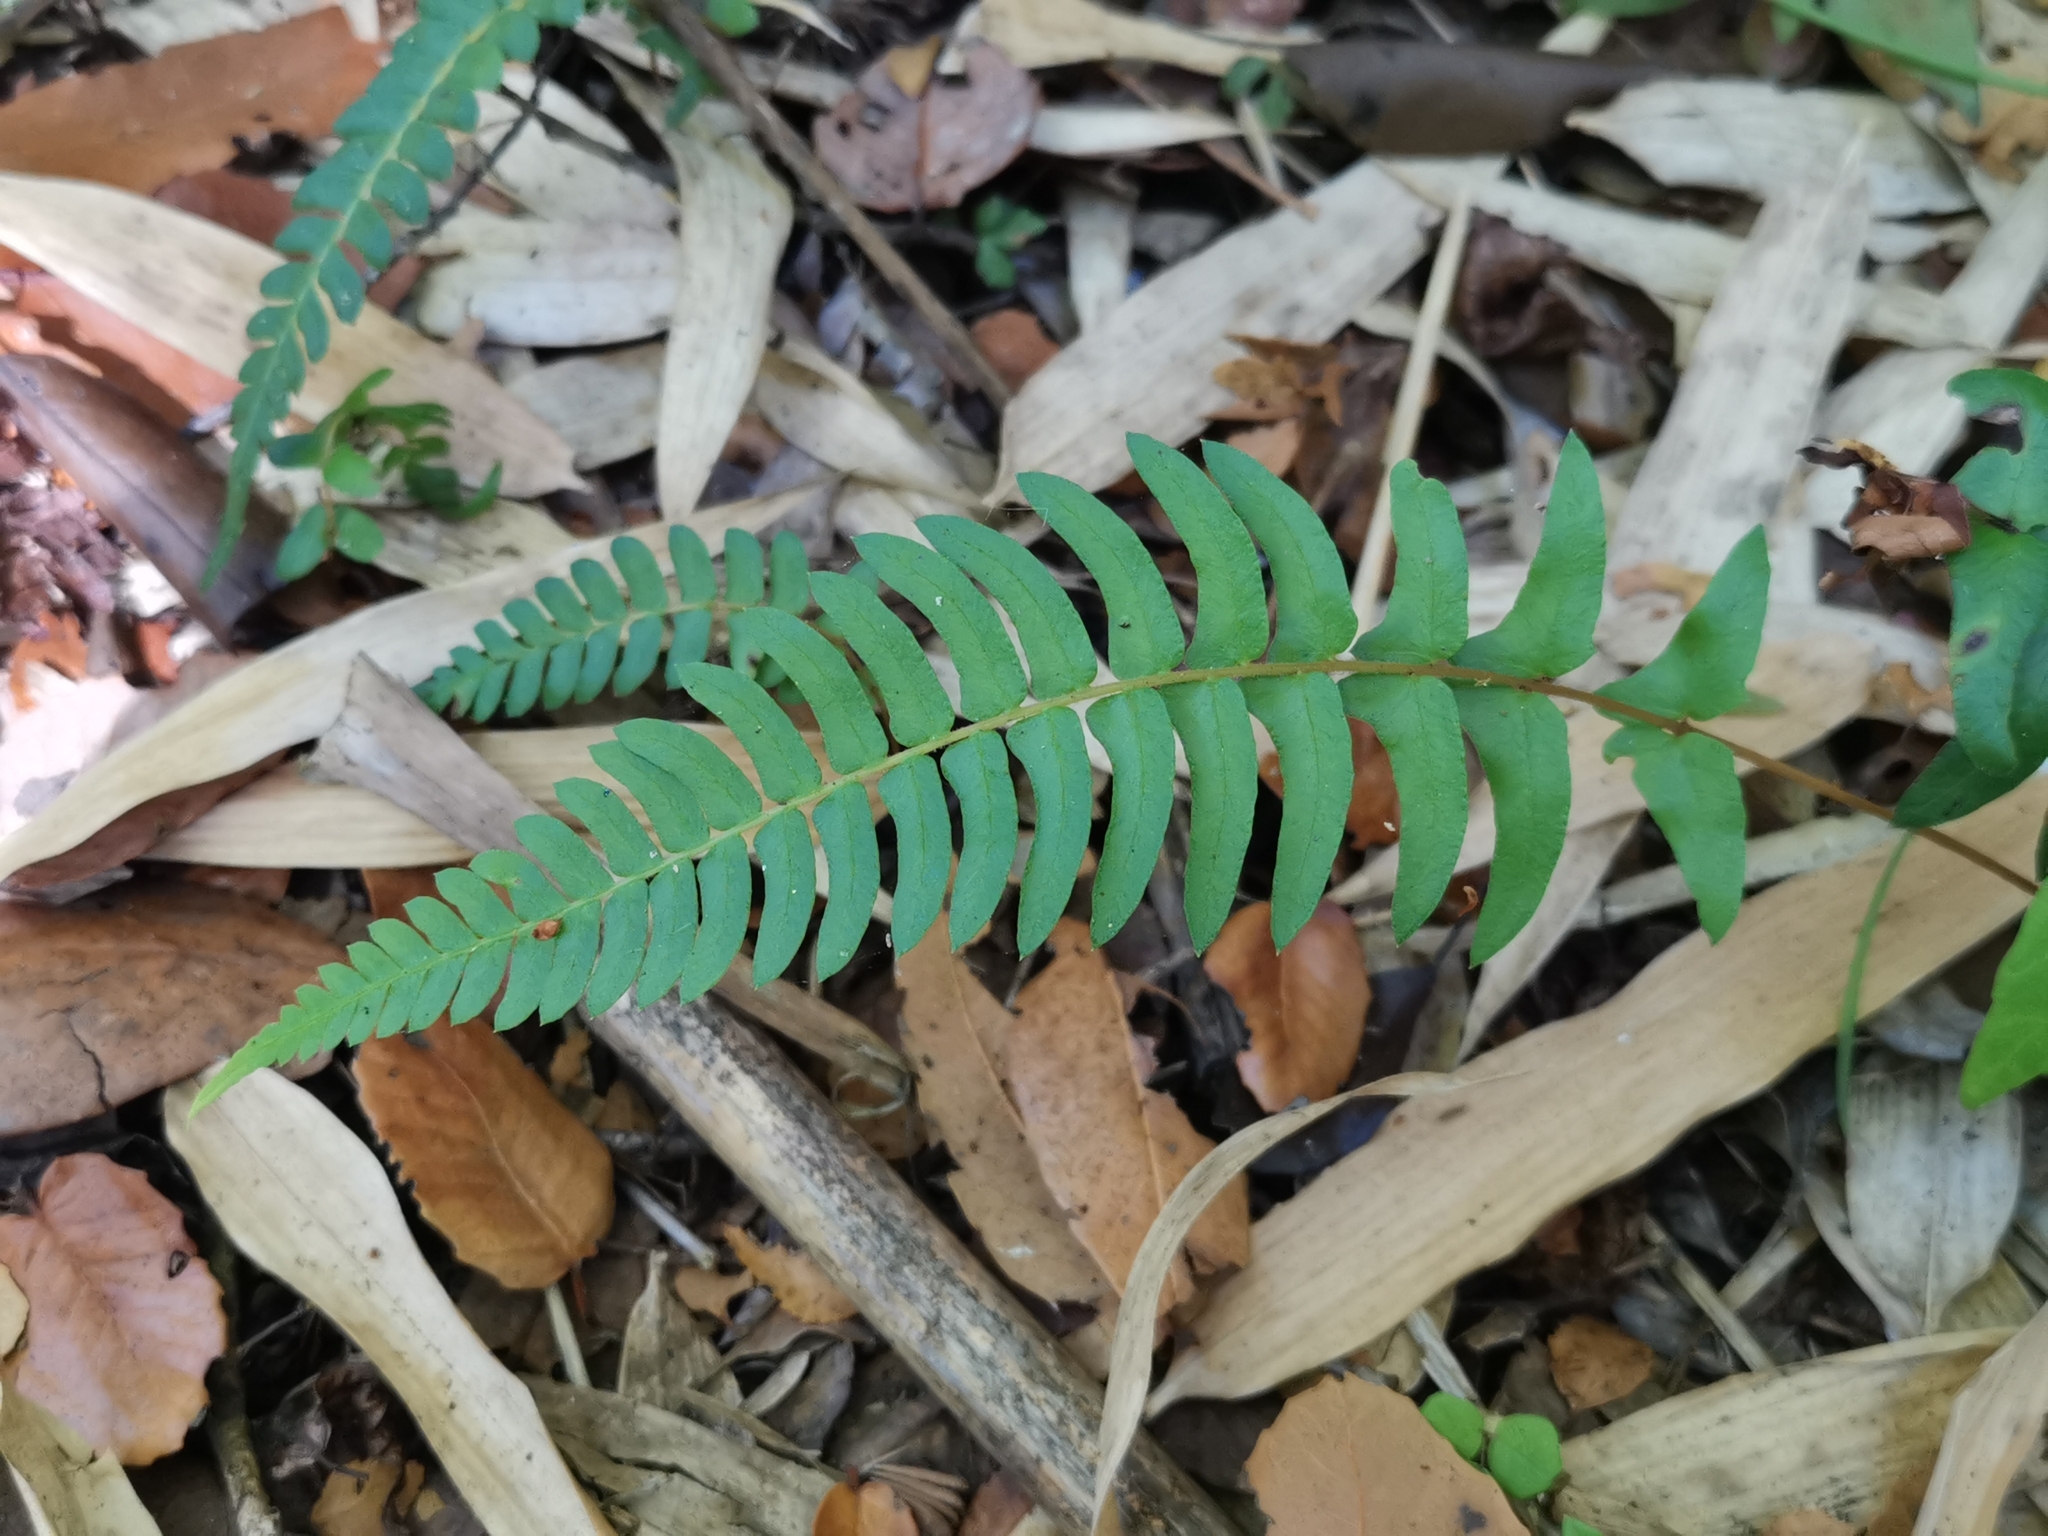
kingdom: Plantae
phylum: Tracheophyta
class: Polypodiopsida
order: Polypodiales
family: Blechnaceae
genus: Blechnum
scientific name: Blechnum hastatum
